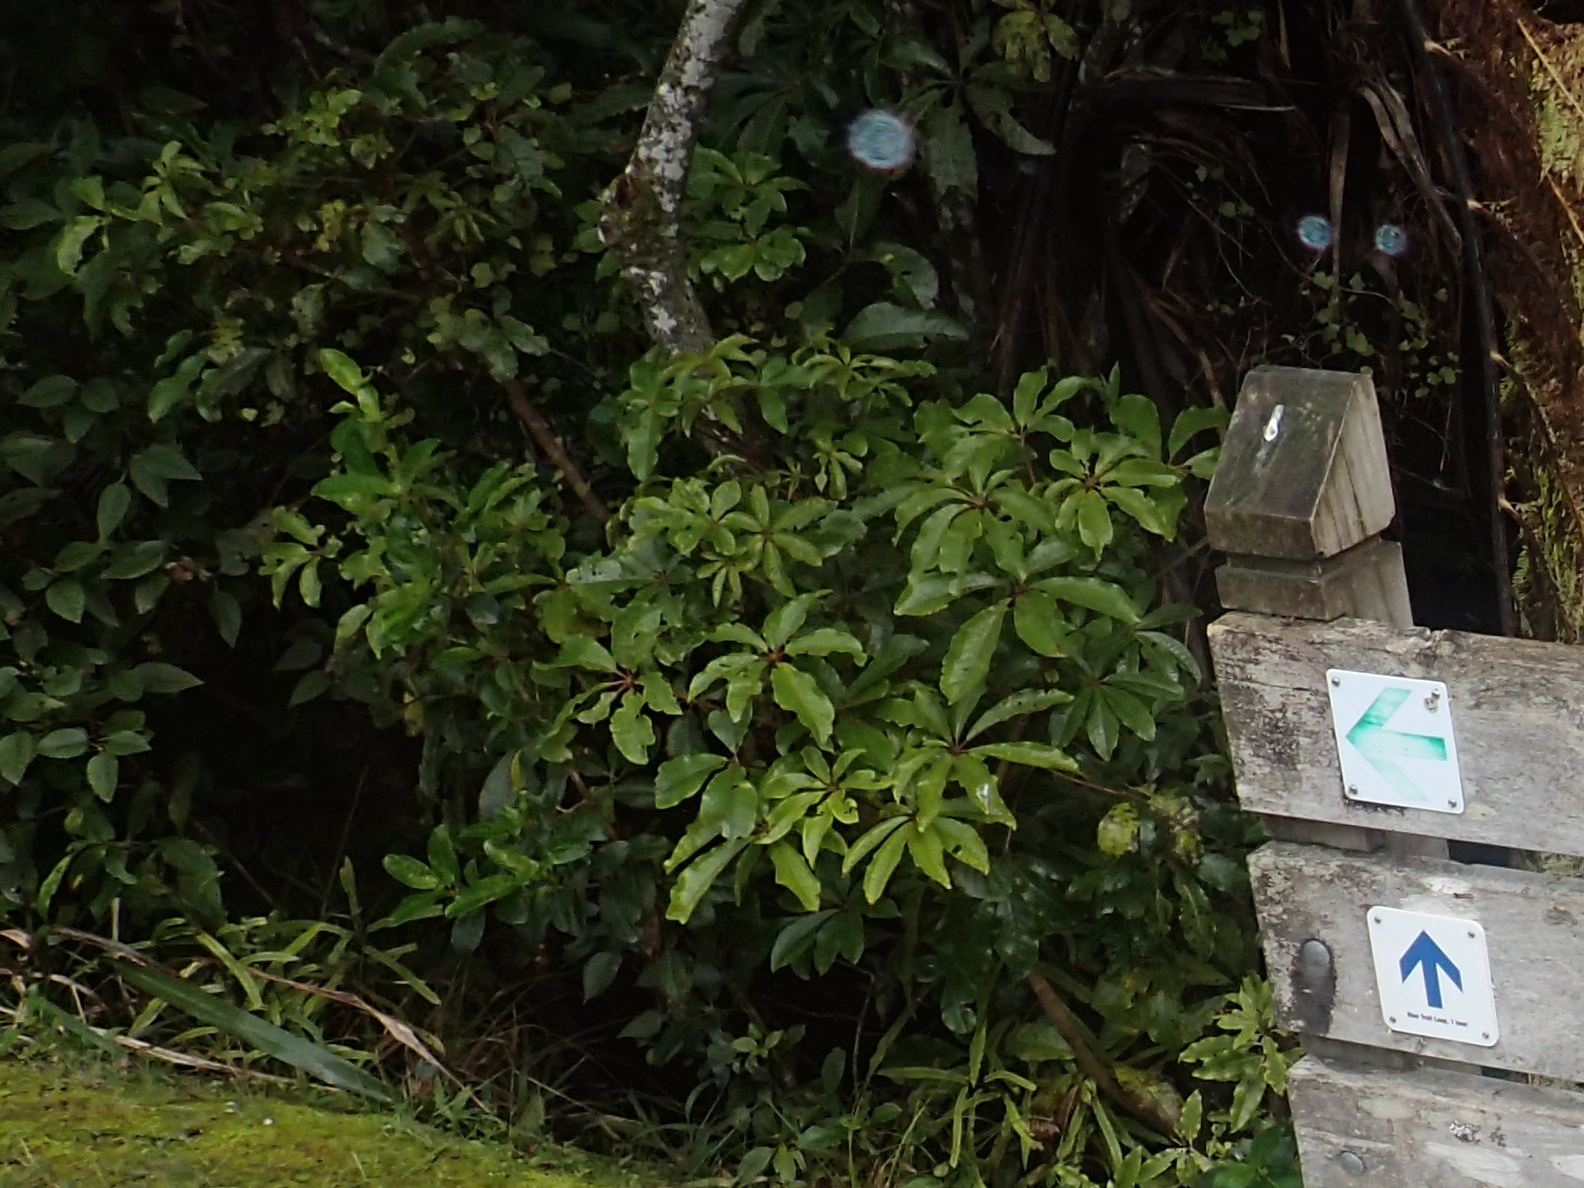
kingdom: Plantae
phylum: Tracheophyta
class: Magnoliopsida
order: Apiales
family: Araliaceae
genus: Schefflera
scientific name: Schefflera digitata
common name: Pate
